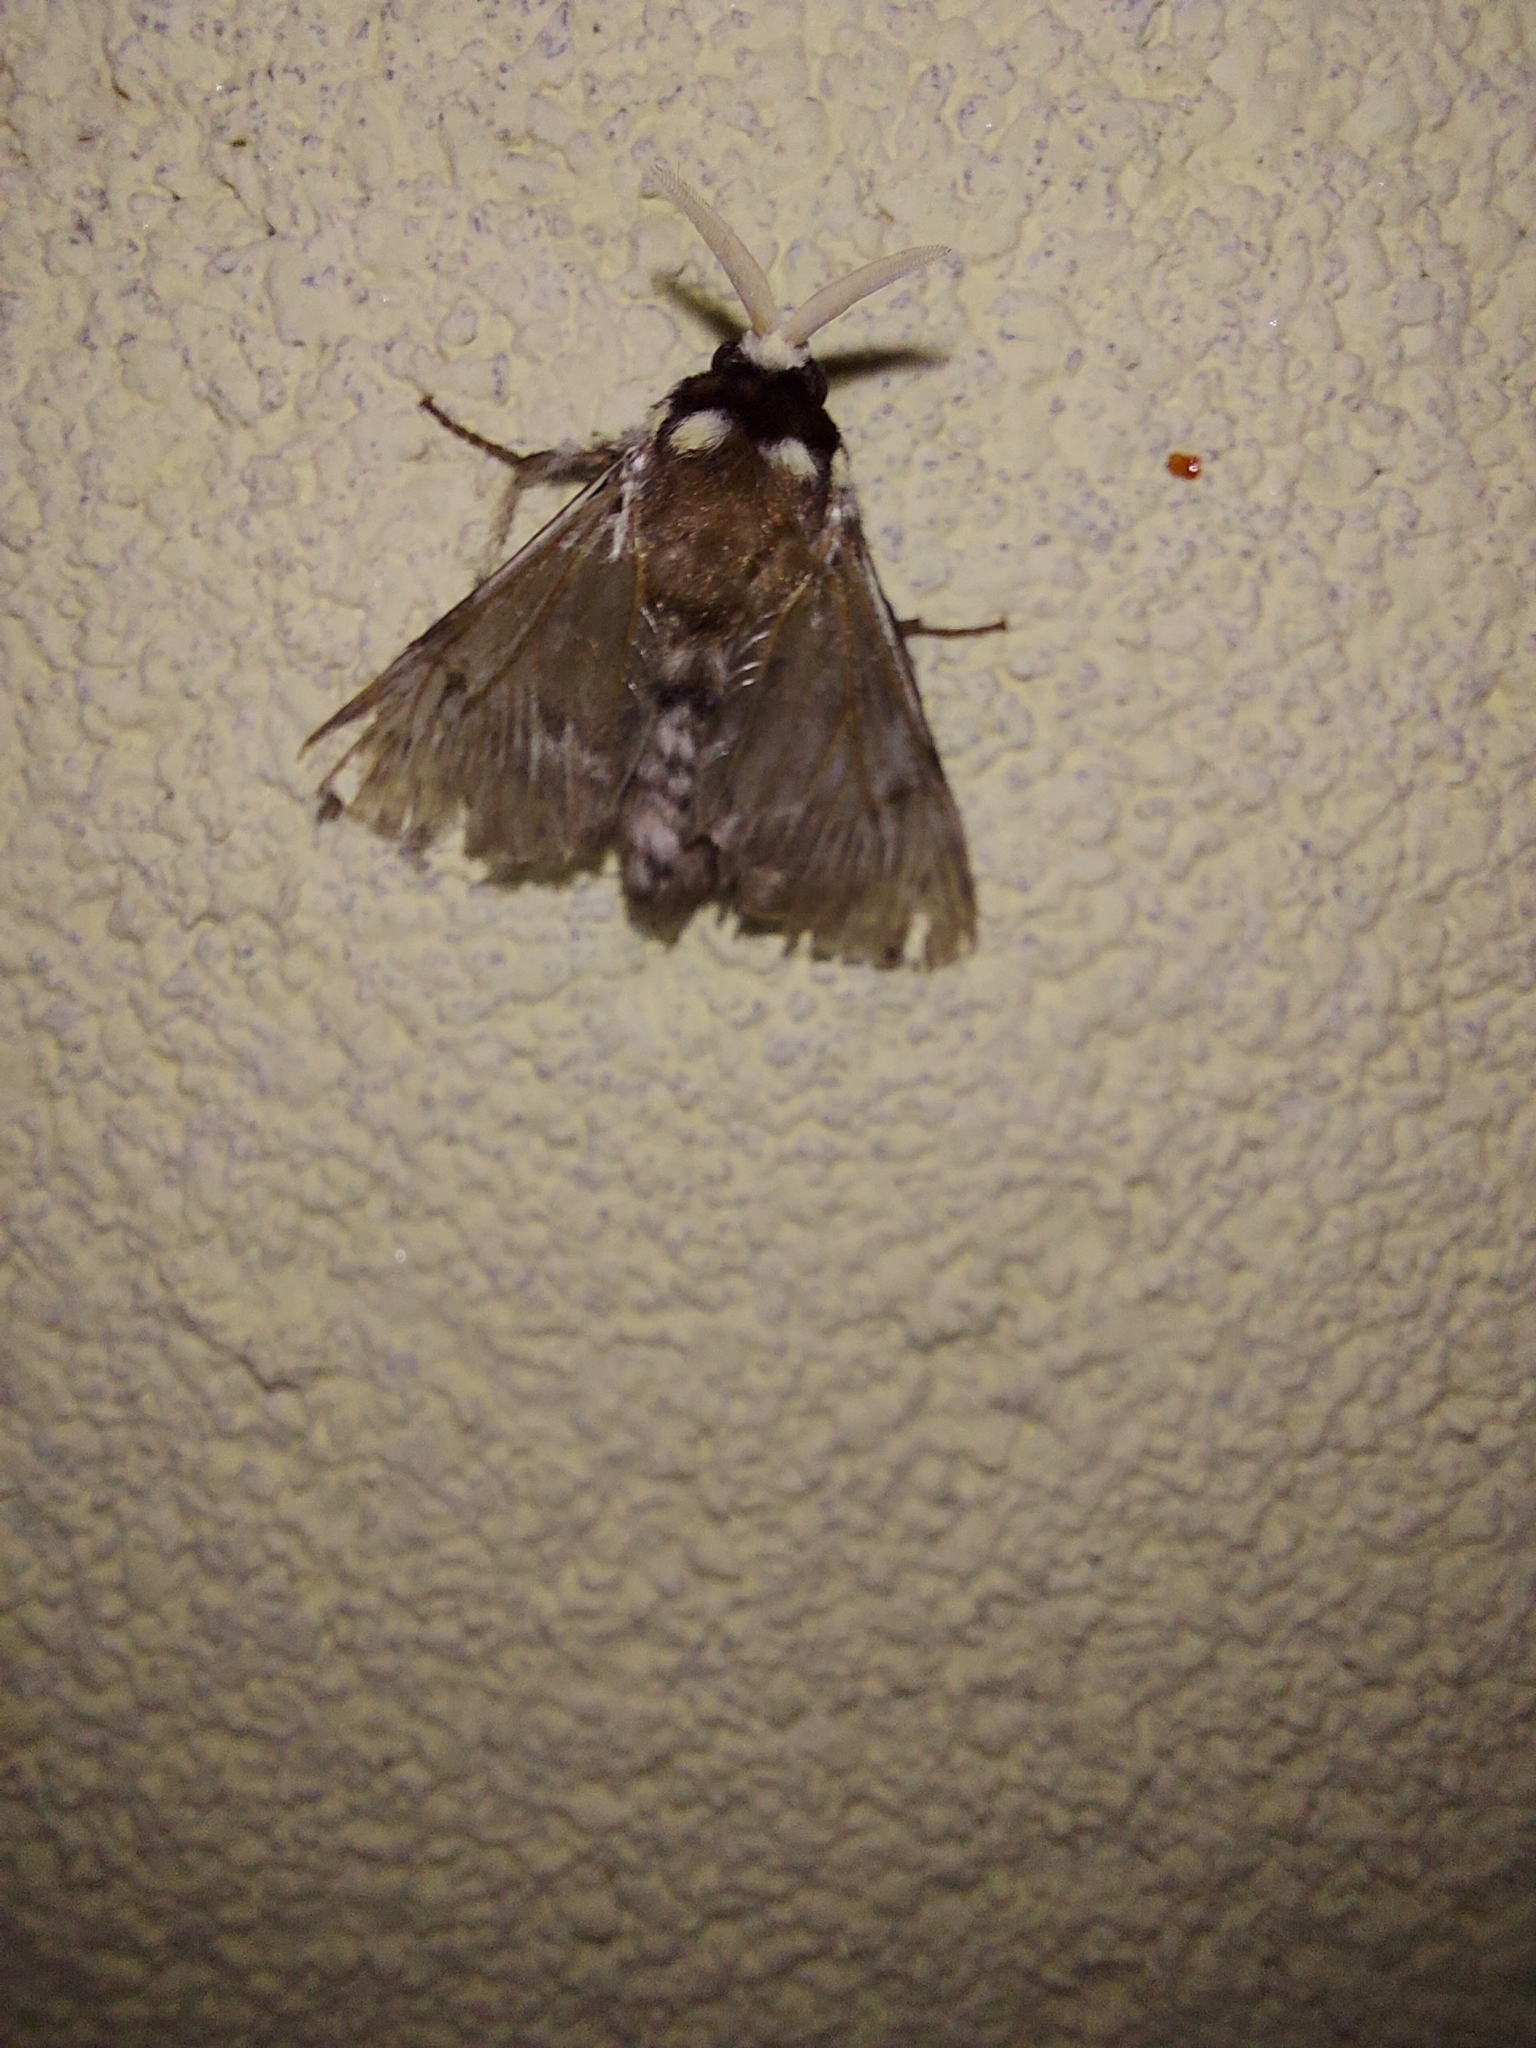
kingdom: Animalia
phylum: Arthropoda
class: Insecta
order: Lepidoptera
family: Megalopygidae
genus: Megalopyge
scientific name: Megalopyge albicollis
